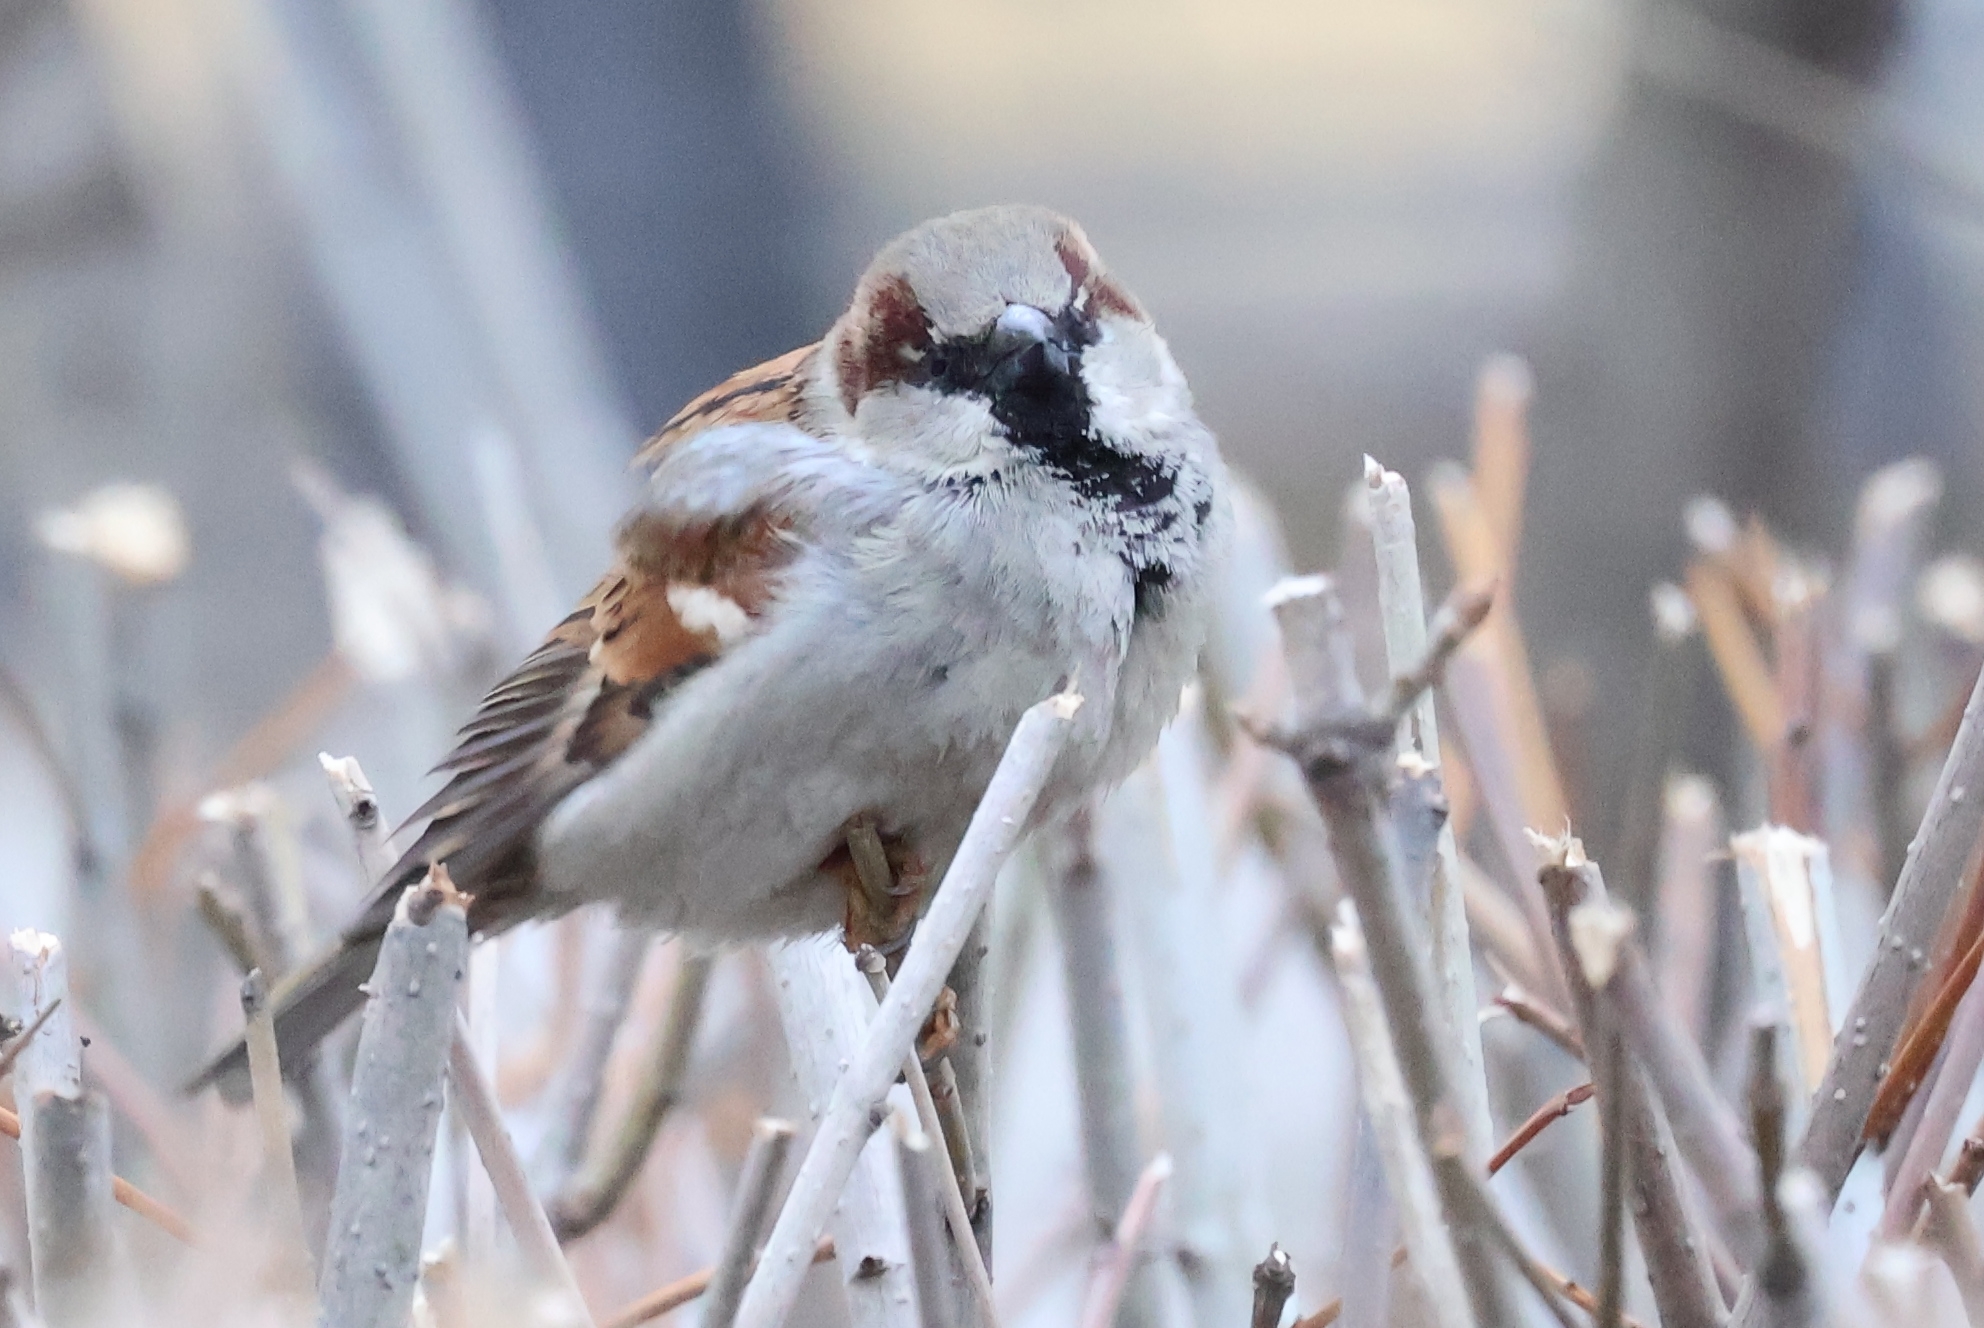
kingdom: Animalia
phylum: Chordata
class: Aves
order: Passeriformes
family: Passeridae
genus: Passer
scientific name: Passer domesticus
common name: House sparrow
